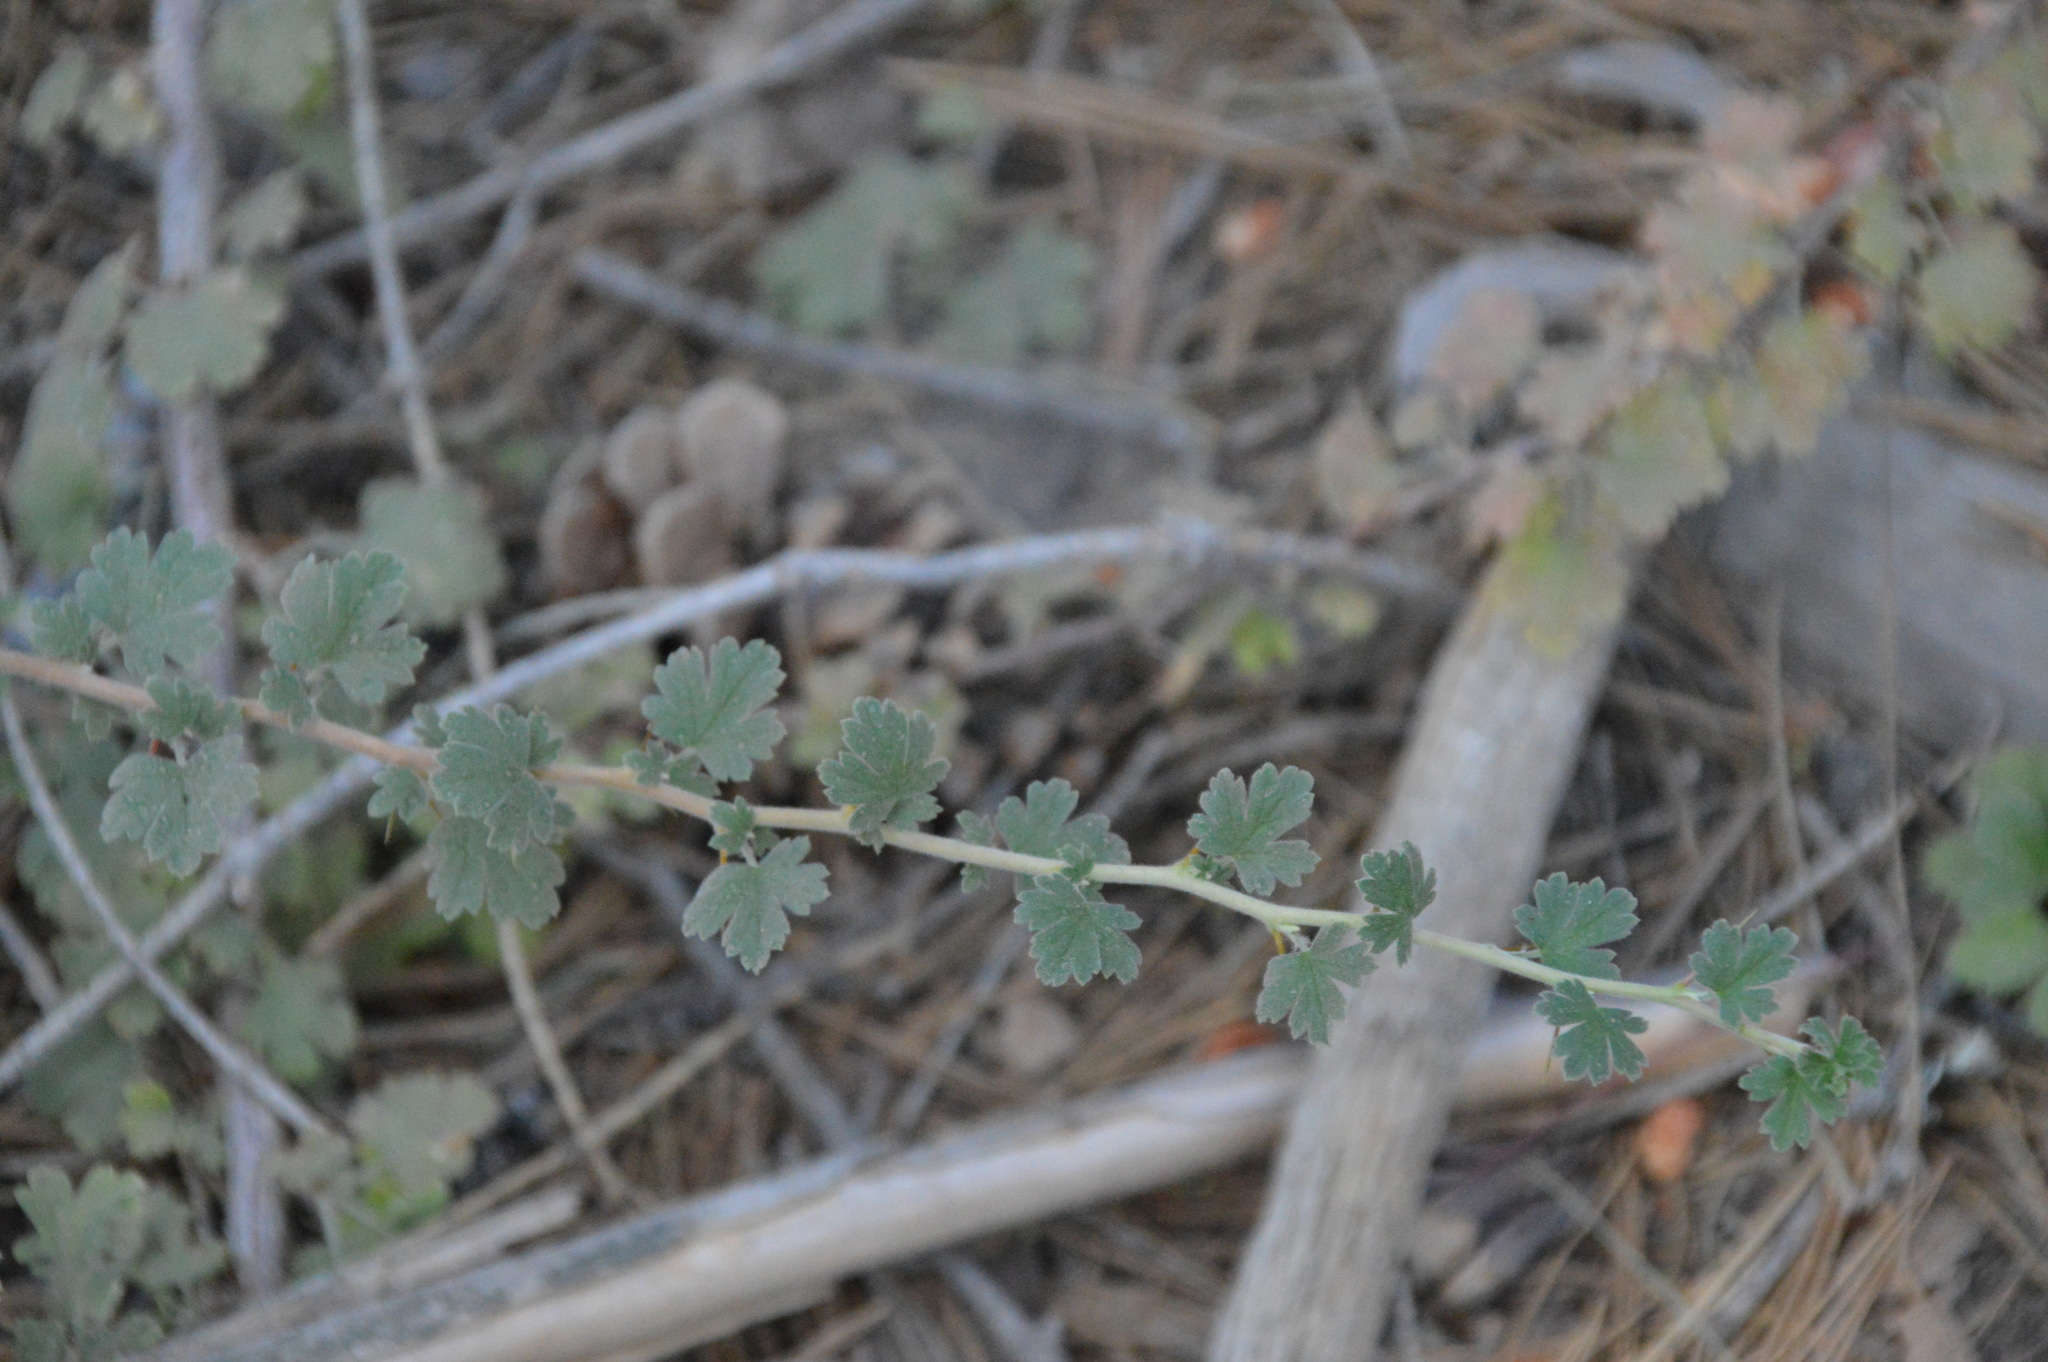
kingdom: Plantae
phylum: Tracheophyta
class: Magnoliopsida
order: Saxifragales
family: Grossulariaceae
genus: Ribes
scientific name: Ribes roezlii
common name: Sierra gooseberry
